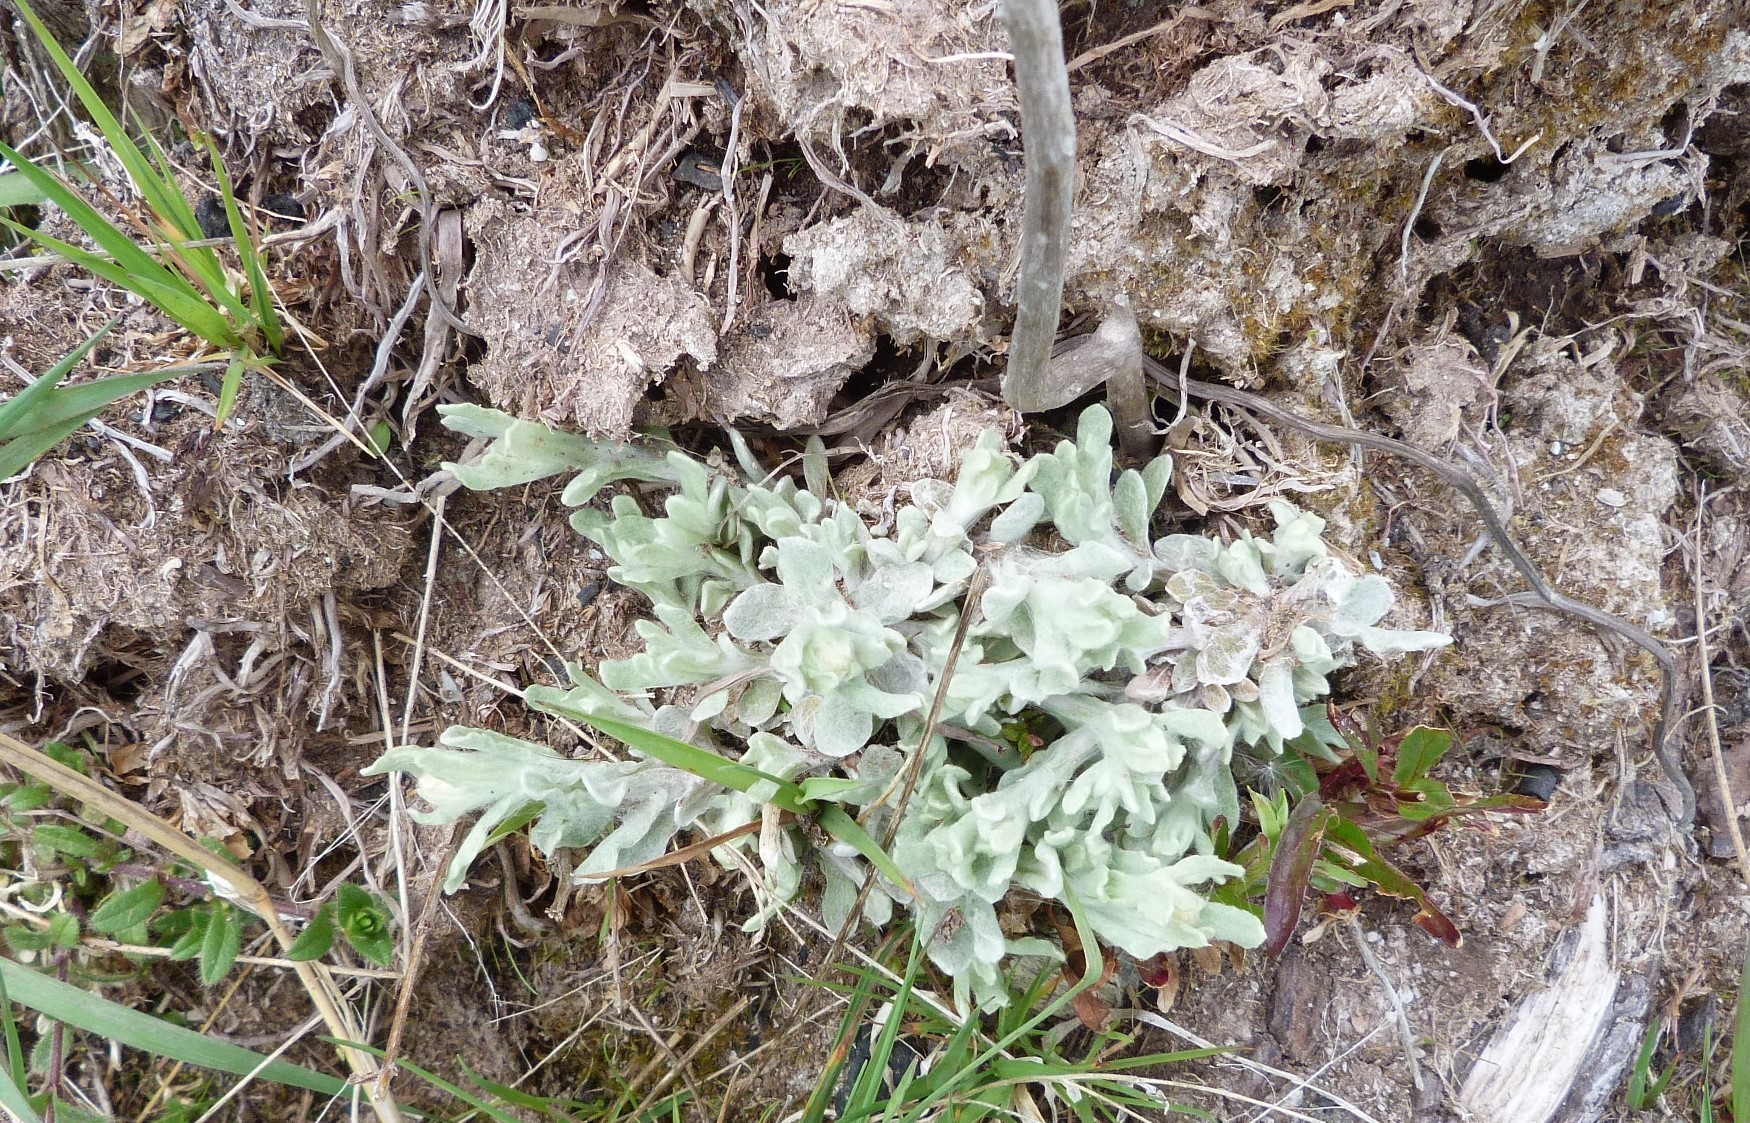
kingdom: Plantae
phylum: Tracheophyta
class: Magnoliopsida
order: Asterales
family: Asteraceae
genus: Helichrysum
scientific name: Helichrysum luteoalbum
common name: Daisy
